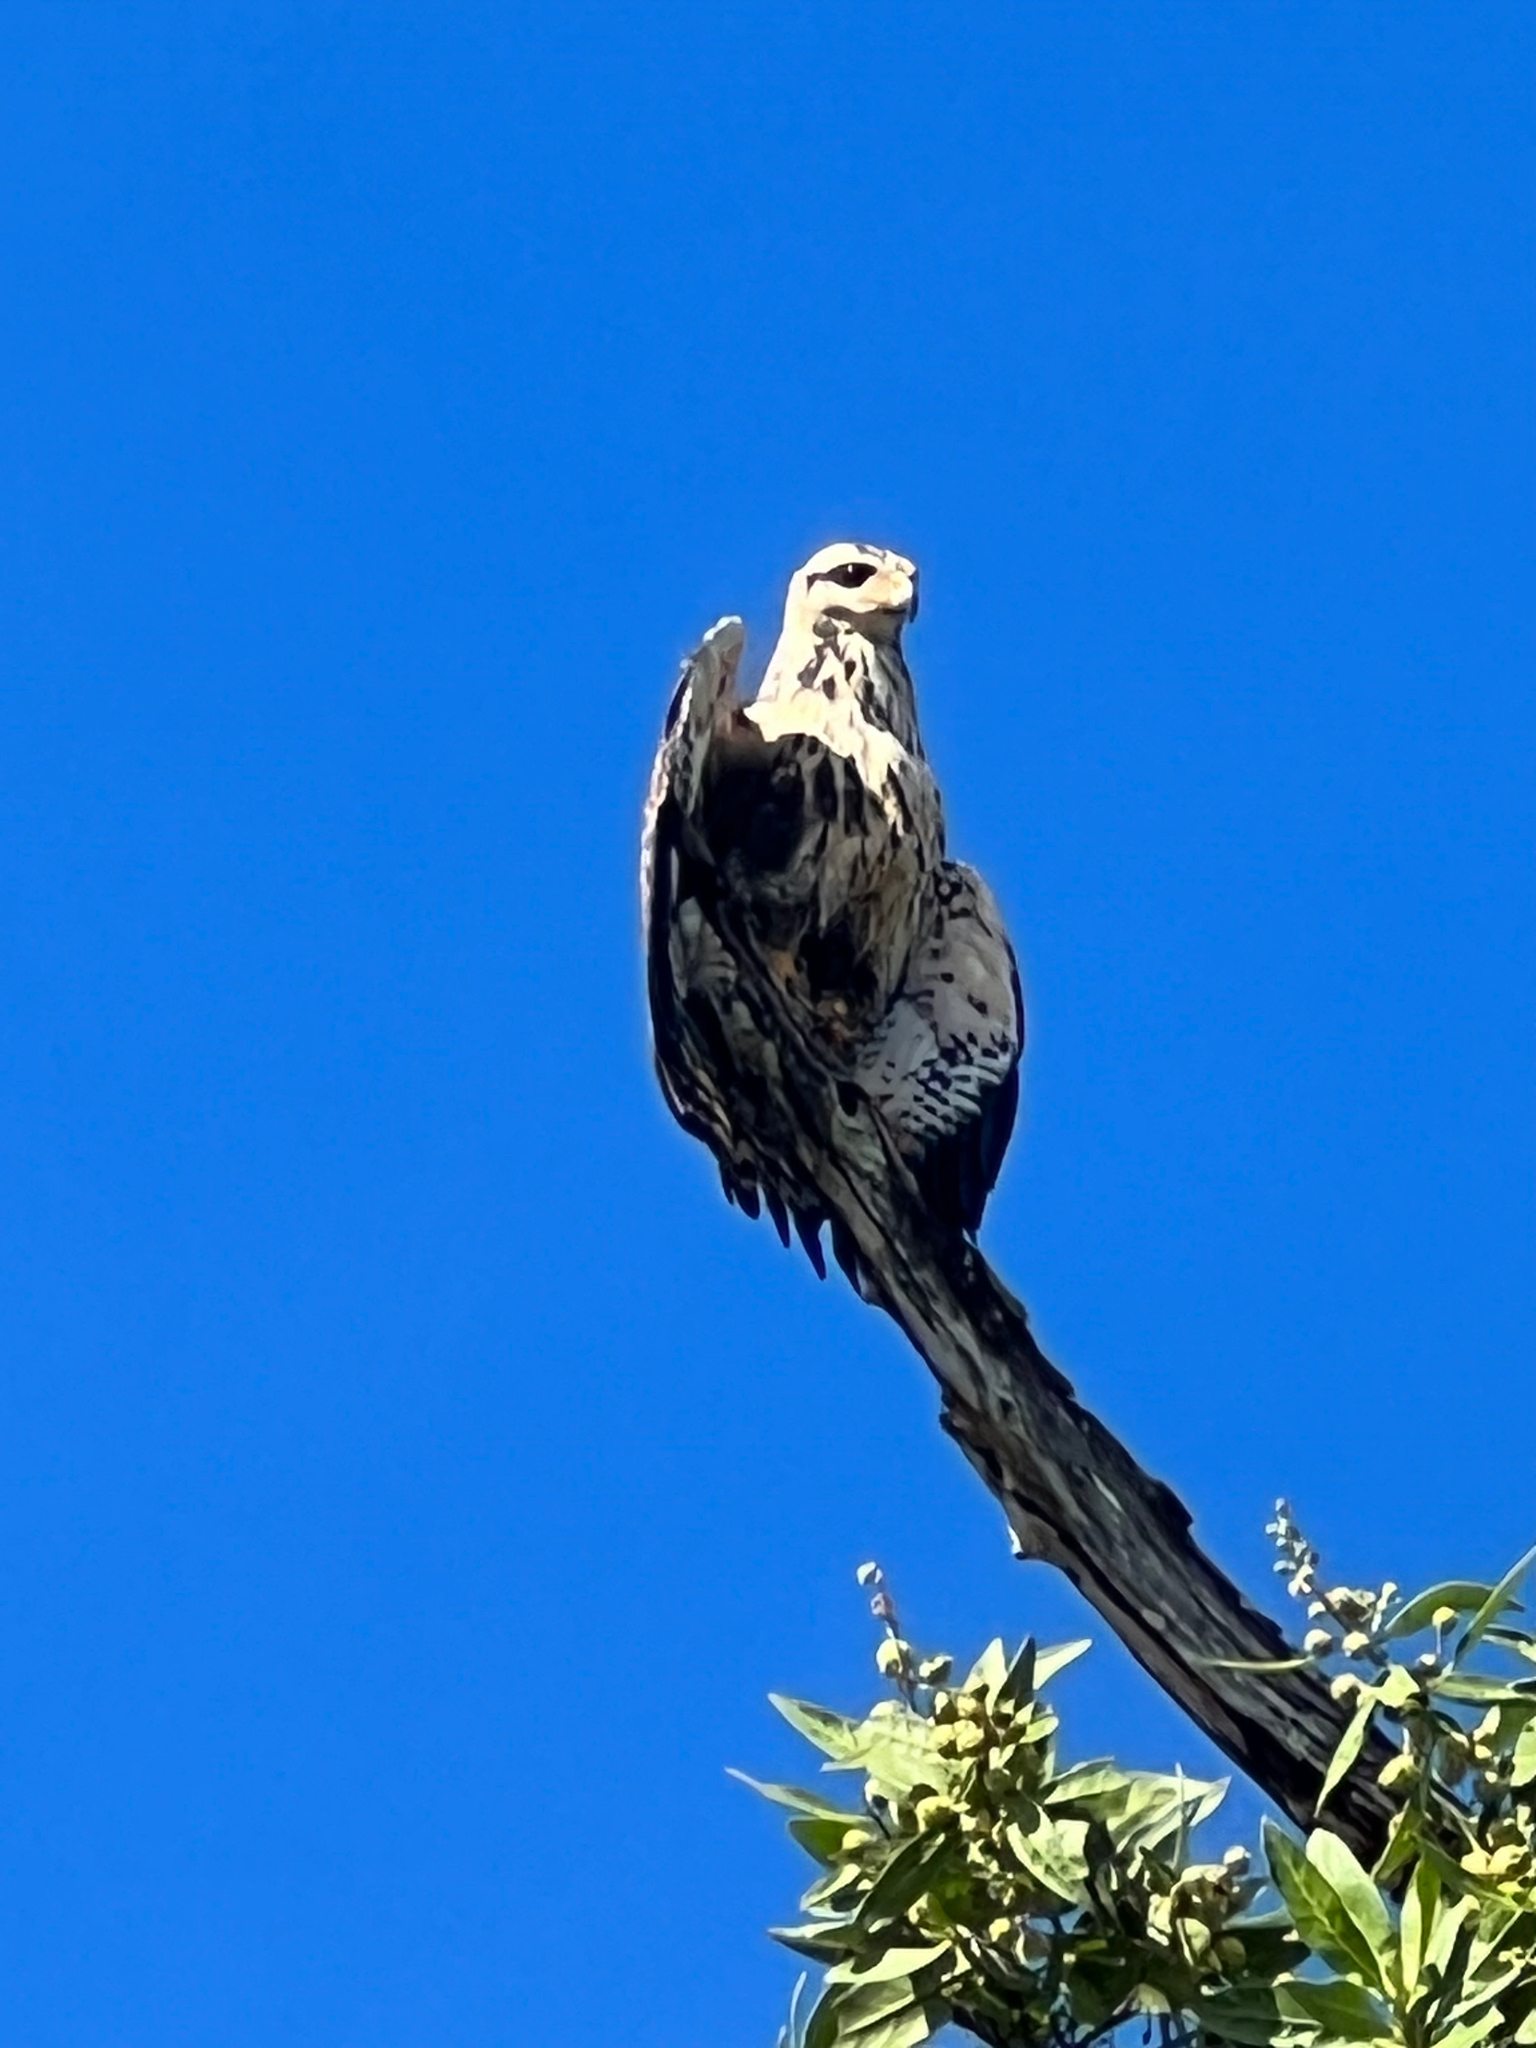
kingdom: Animalia
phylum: Chordata
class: Aves
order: Accipitriformes
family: Accipitridae
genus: Buteogallus
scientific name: Buteogallus anthracinus
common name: Common black hawk
